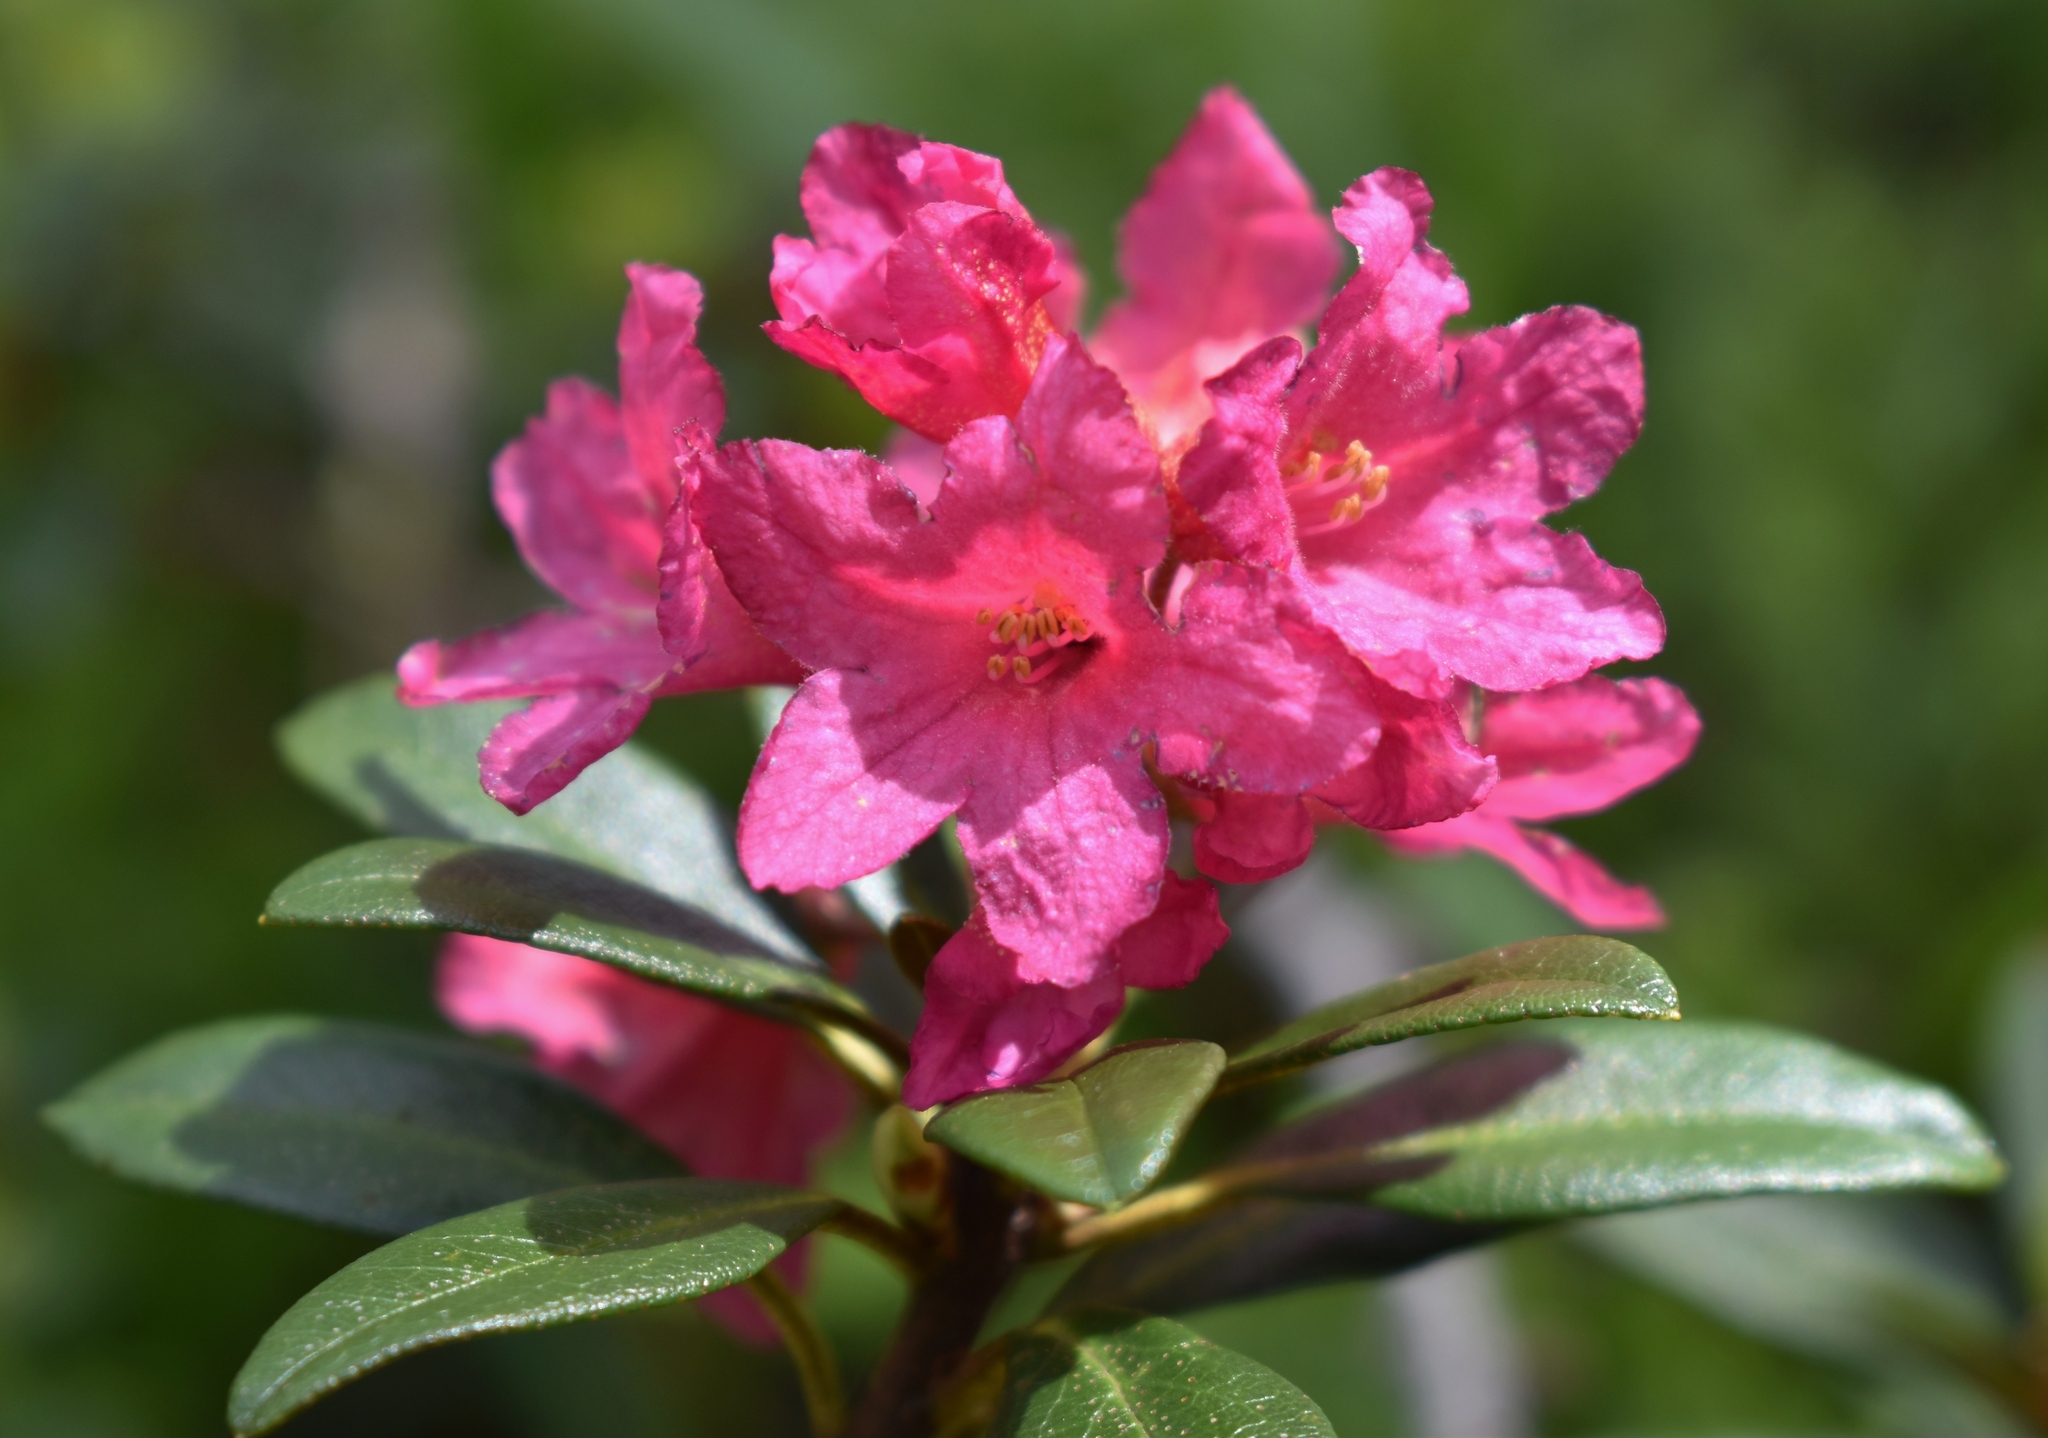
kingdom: Plantae
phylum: Tracheophyta
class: Magnoliopsida
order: Ericales
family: Ericaceae
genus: Rhododendron
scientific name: Rhododendron ferrugineum
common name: Alpenrose
